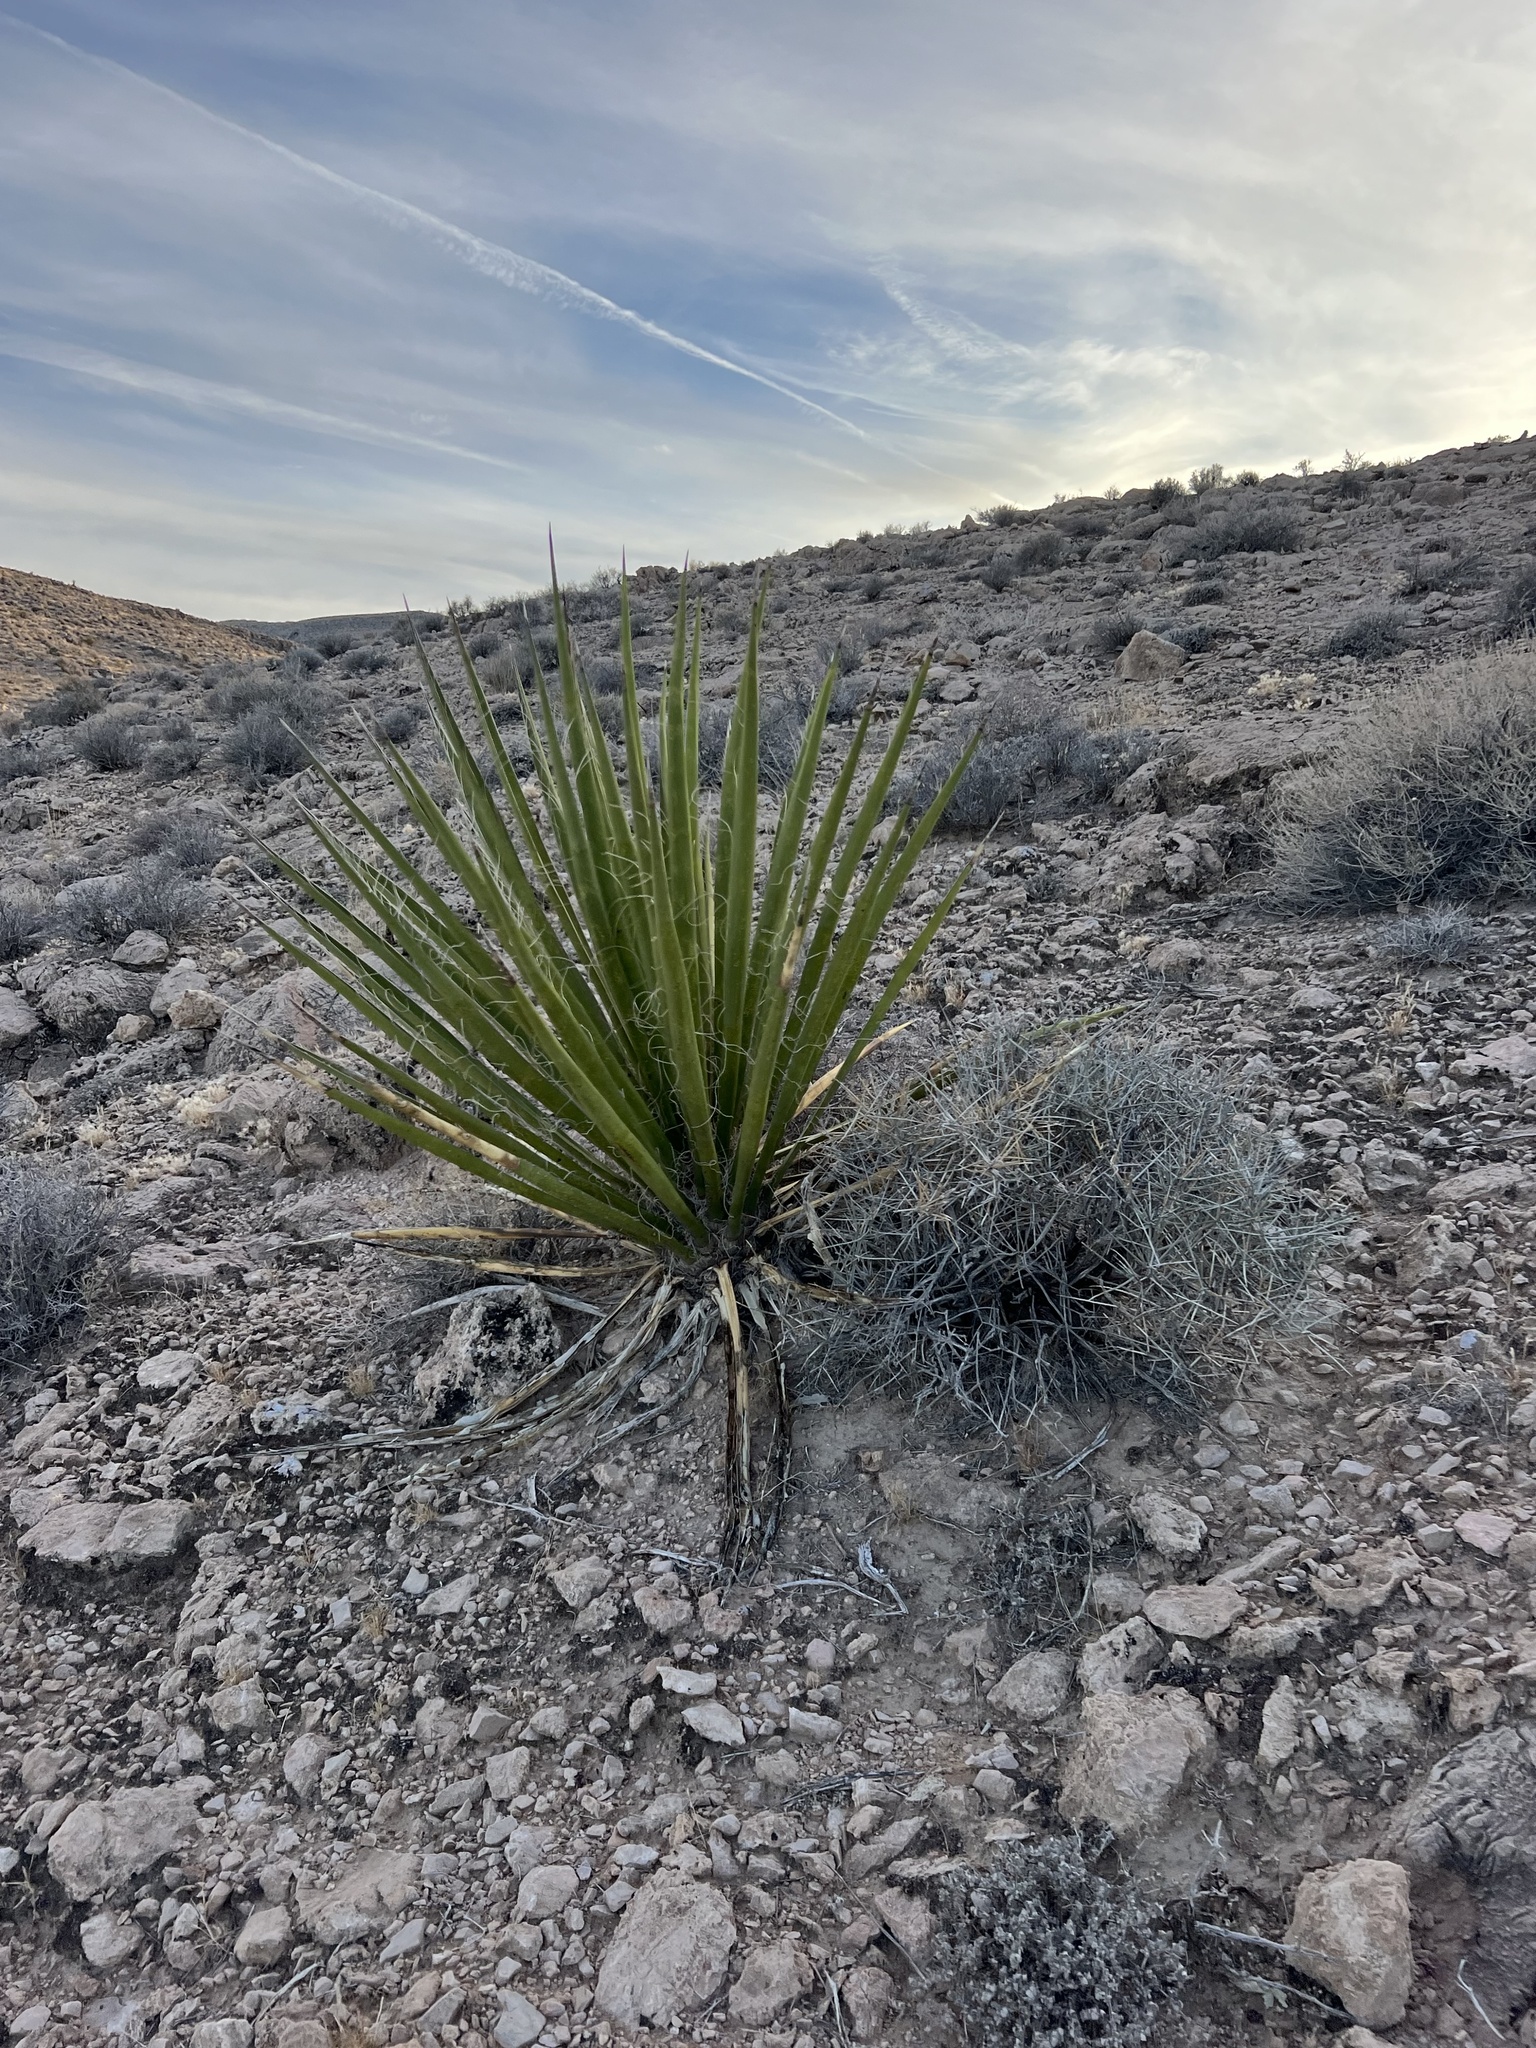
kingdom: Plantae
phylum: Tracheophyta
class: Liliopsida
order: Asparagales
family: Asparagaceae
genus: Yucca
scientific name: Yucca schidigera
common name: Mojave yucca
